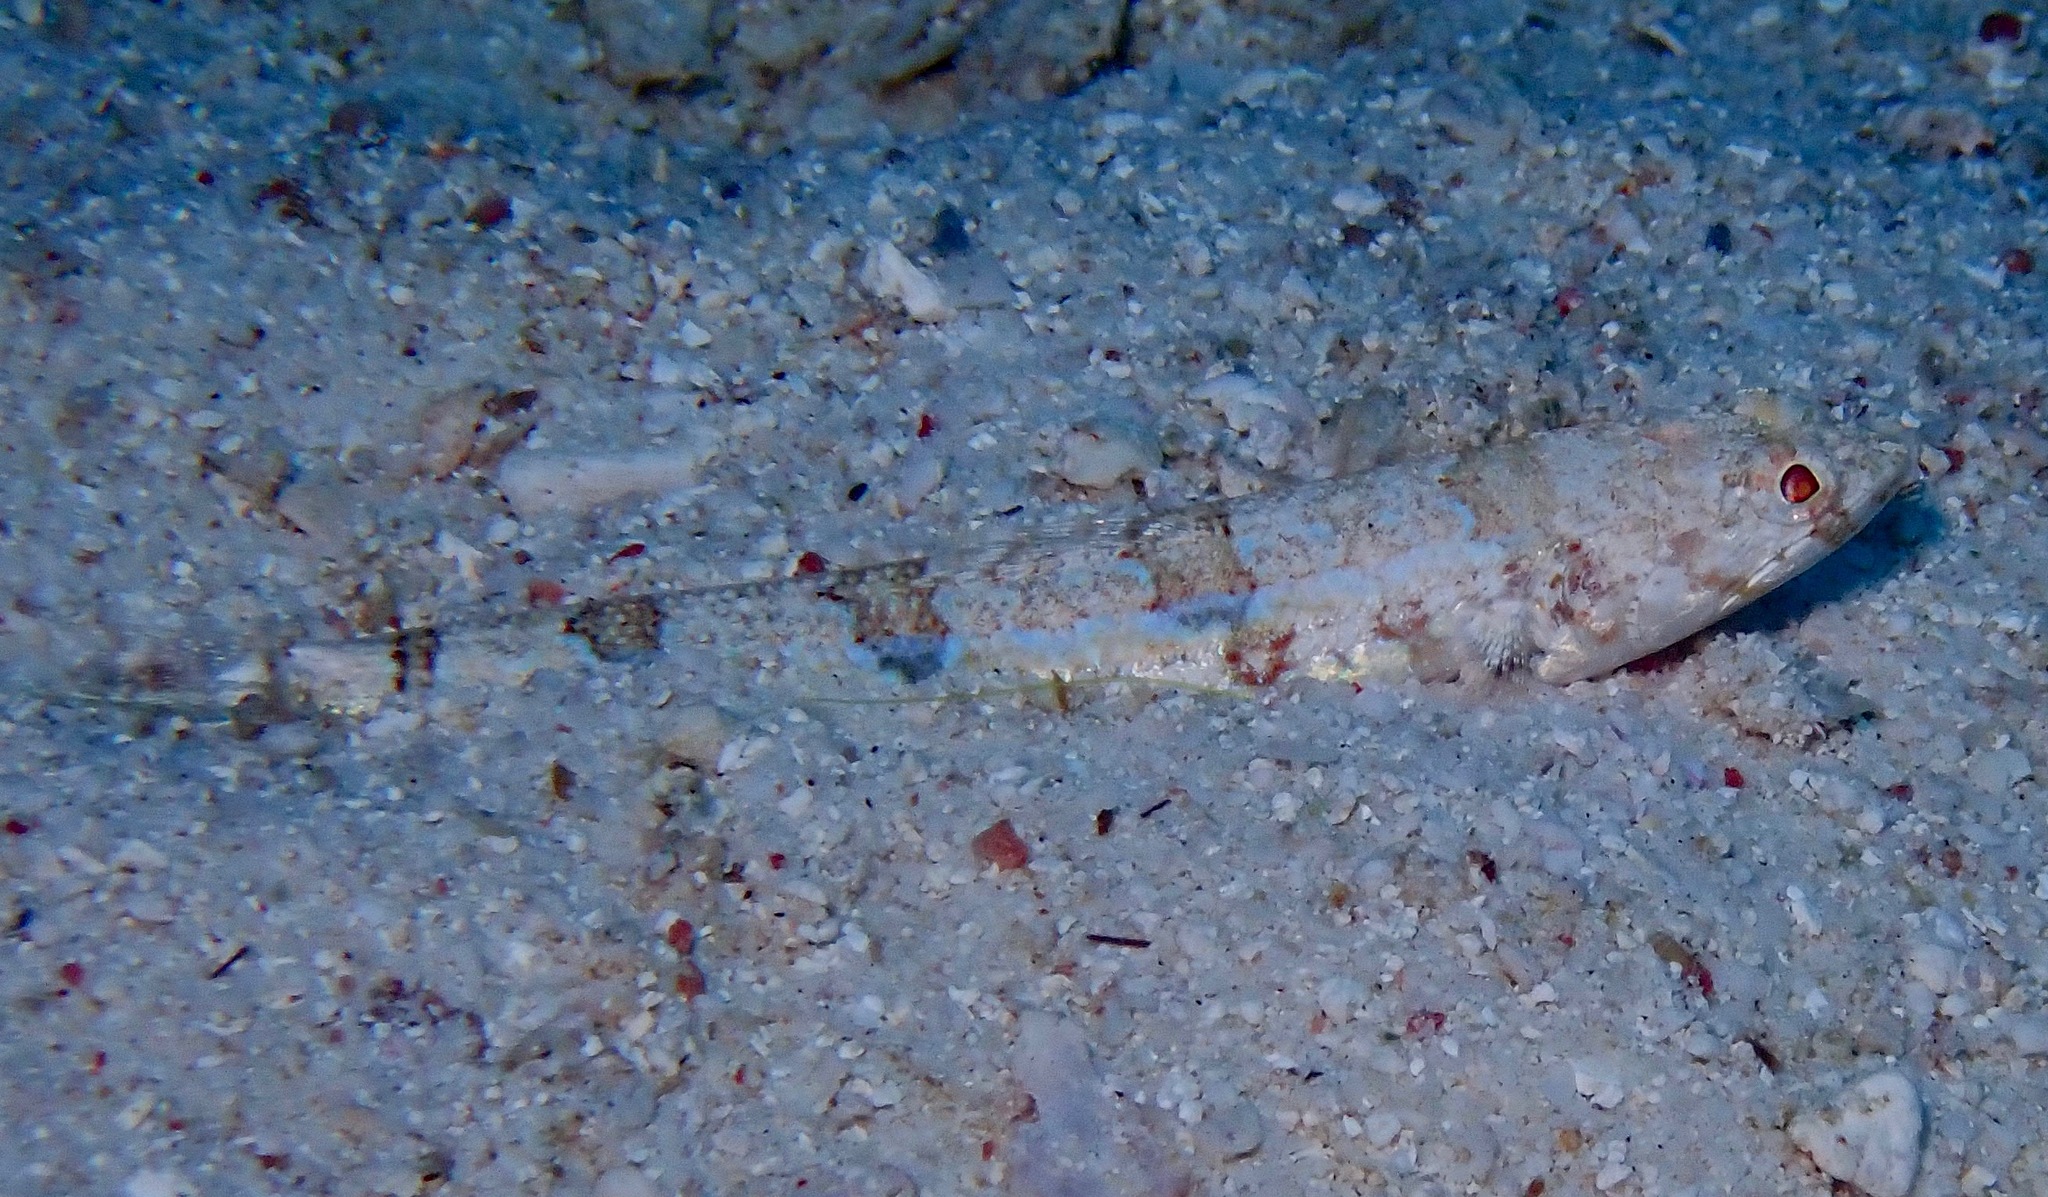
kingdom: Animalia
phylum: Chordata
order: Aulopiformes
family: Synodontidae
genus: Synodus
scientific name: Synodus dermatogenys
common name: Banded lizardfish
